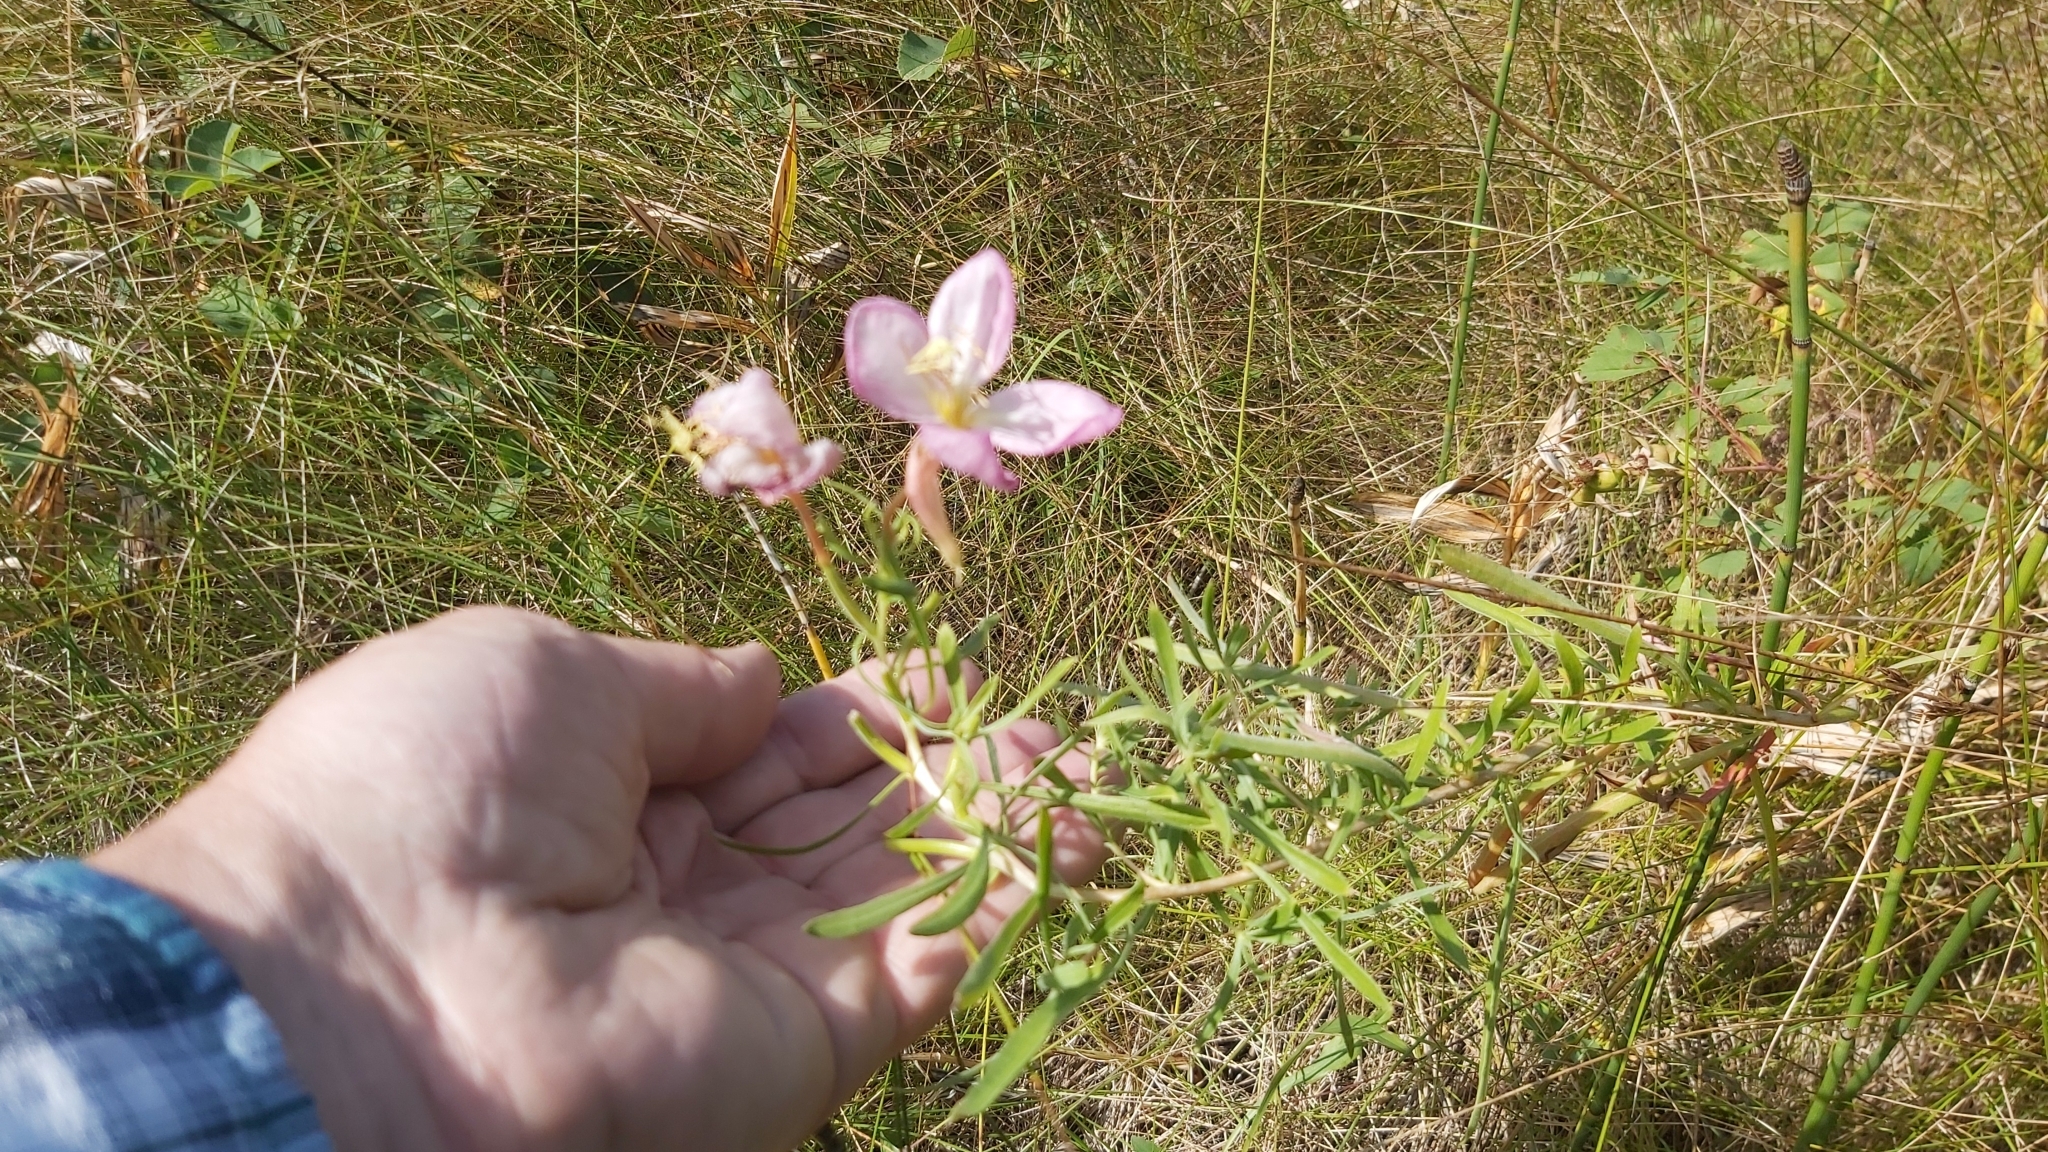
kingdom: Plantae
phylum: Tracheophyta
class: Magnoliopsida
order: Myrtales
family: Onagraceae
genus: Oenothera
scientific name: Oenothera nuttallii
